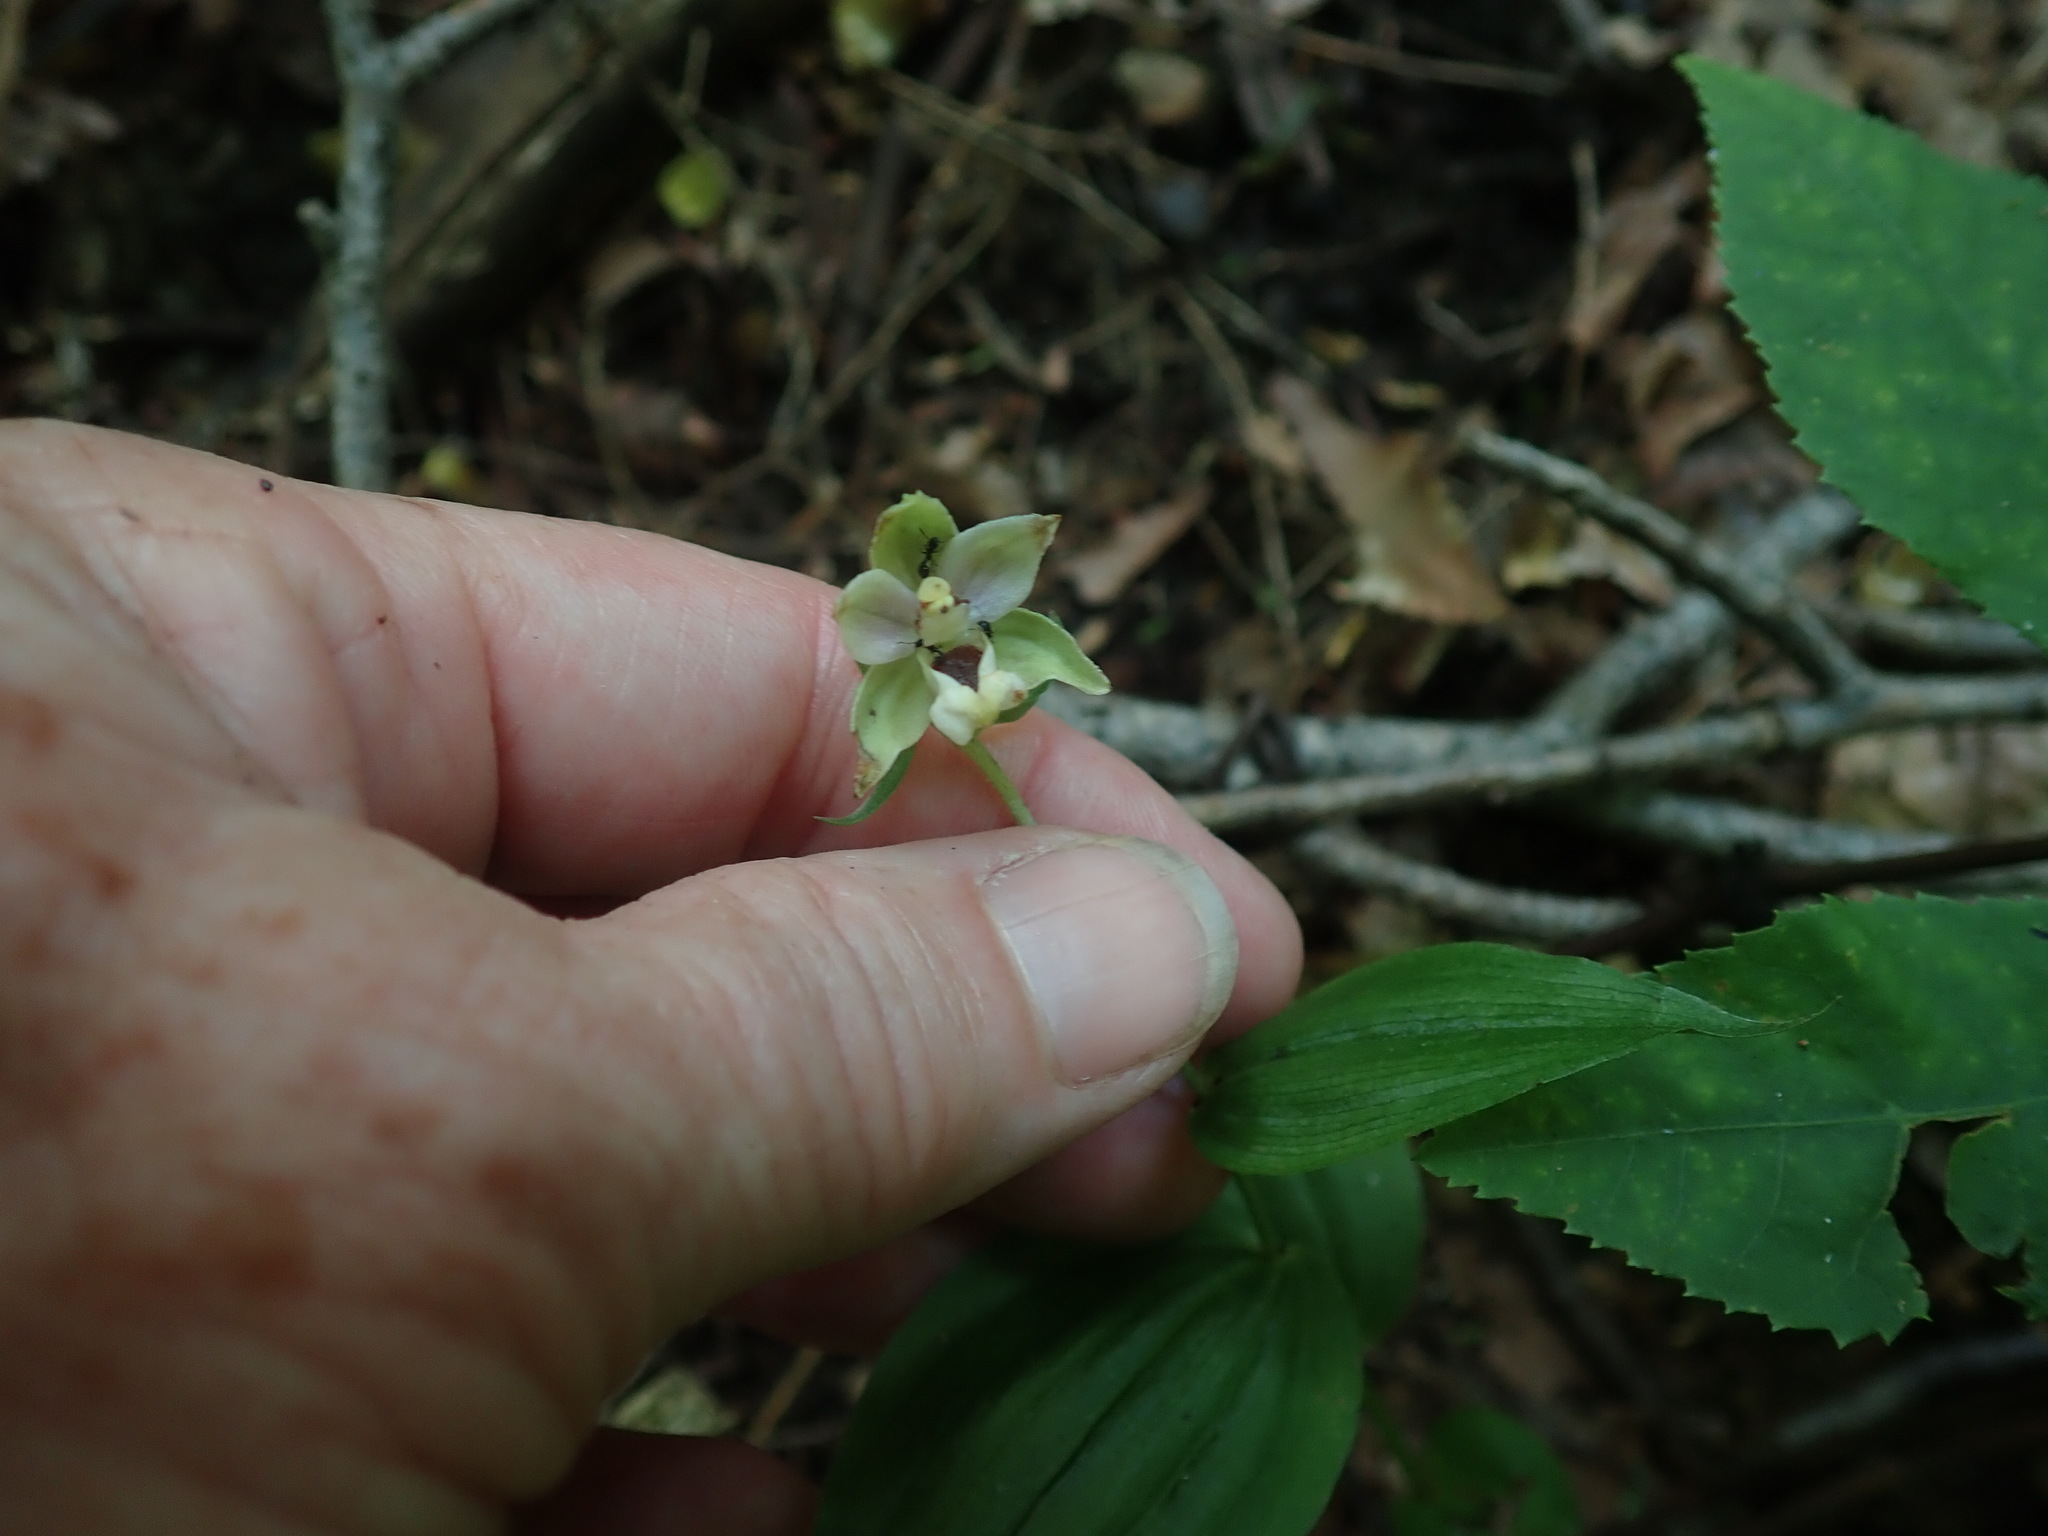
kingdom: Plantae
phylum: Tracheophyta
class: Liliopsida
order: Asparagales
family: Orchidaceae
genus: Epipactis
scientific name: Epipactis helleborine
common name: Broad-leaved helleborine
